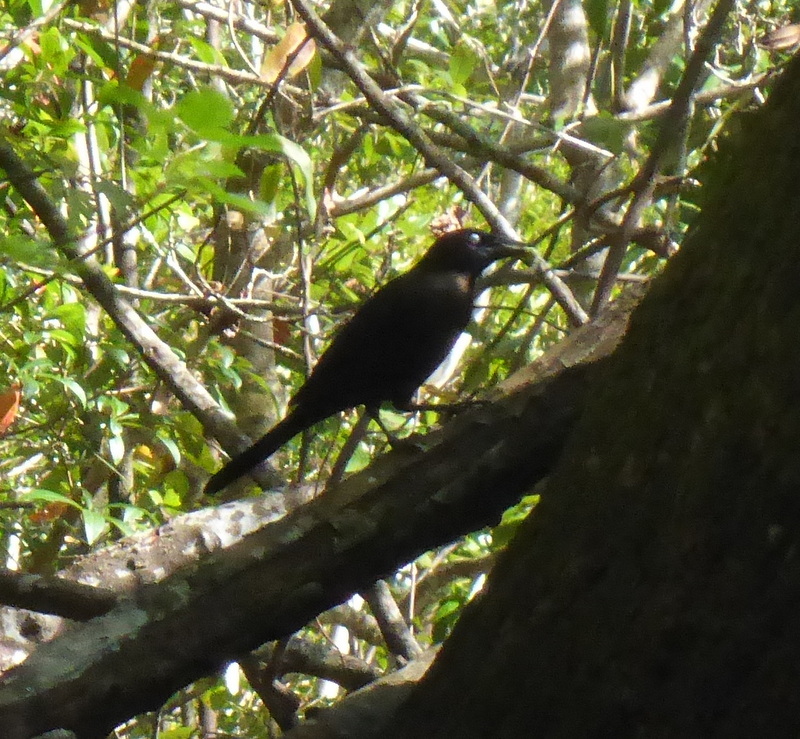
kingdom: Animalia
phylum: Chordata
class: Aves
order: Passeriformes
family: Icteridae
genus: Quiscalus
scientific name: Quiscalus quiscula
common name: Common grackle
